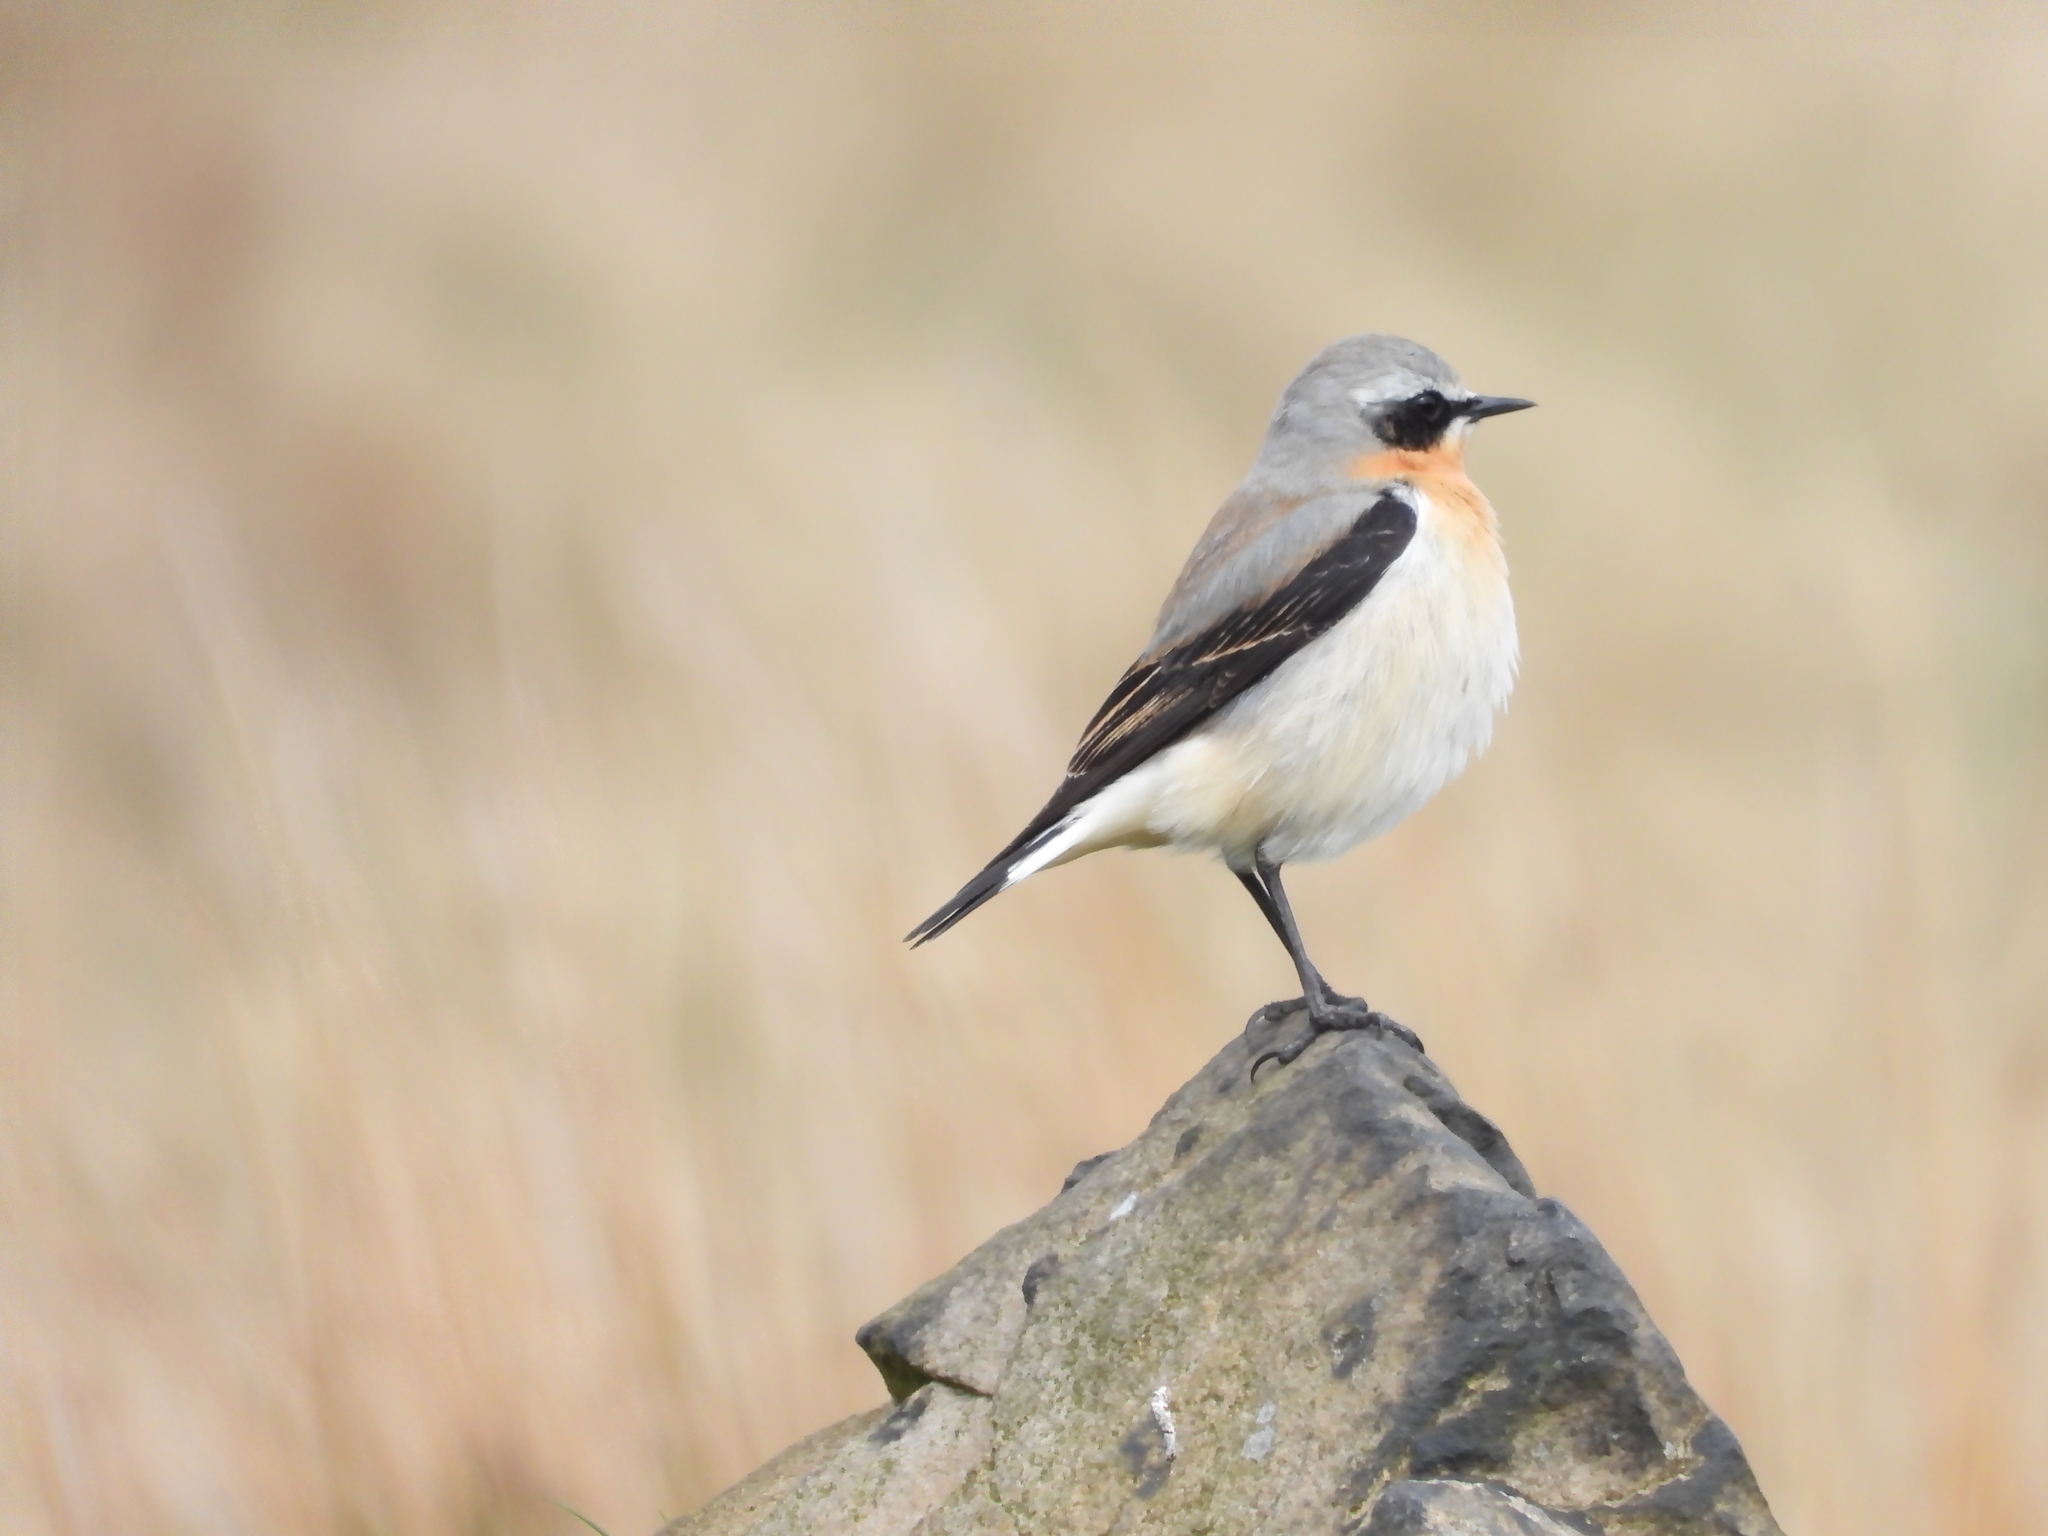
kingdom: Animalia
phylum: Chordata
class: Aves
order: Passeriformes
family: Muscicapidae
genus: Oenanthe
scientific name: Oenanthe oenanthe
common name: Northern wheatear
